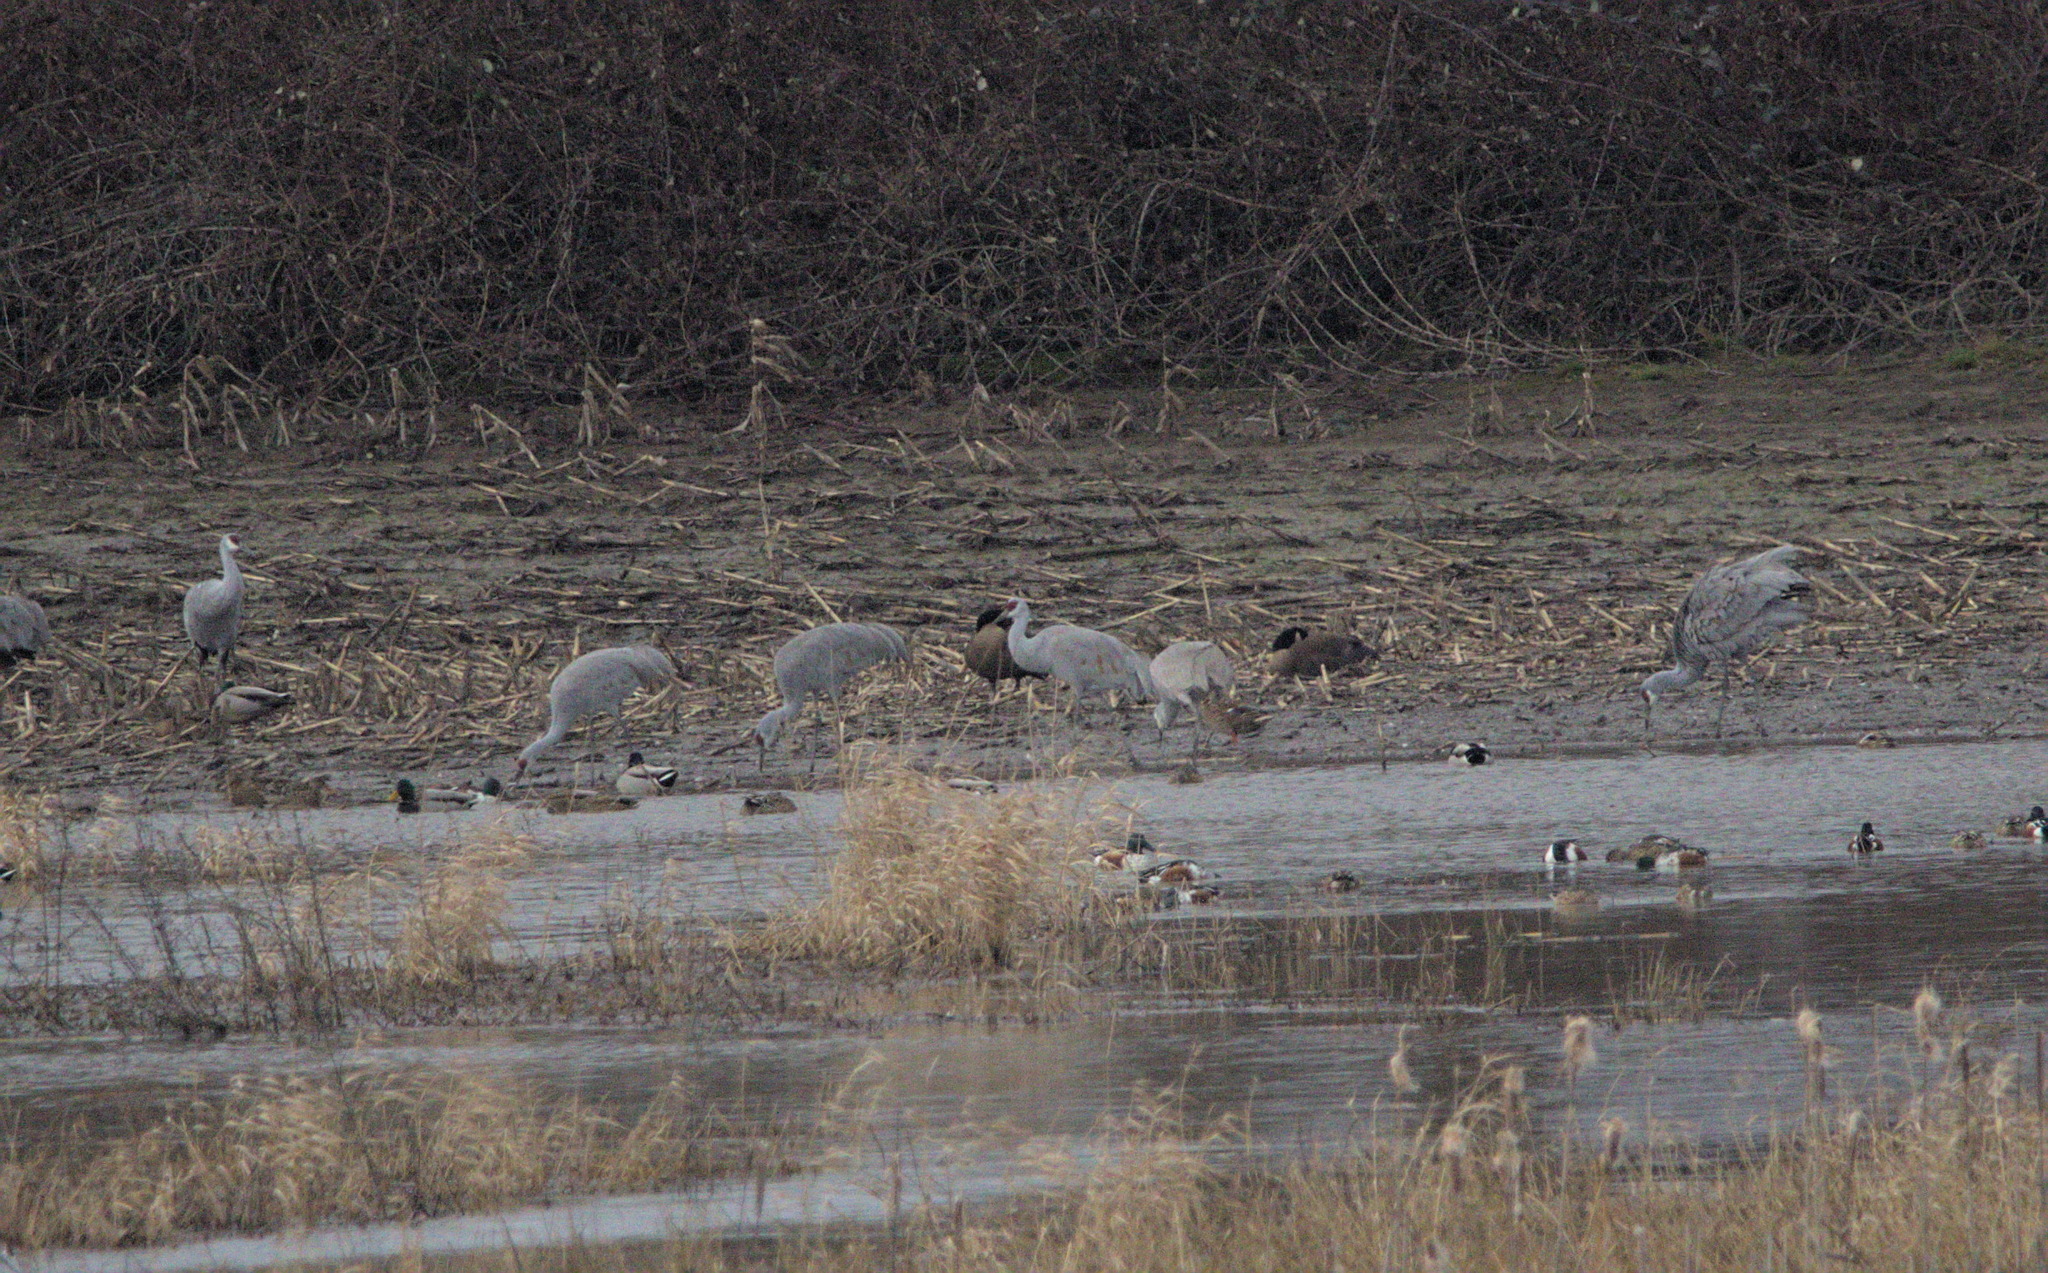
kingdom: Animalia
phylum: Chordata
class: Aves
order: Gruiformes
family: Gruidae
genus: Grus
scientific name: Grus canadensis
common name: Sandhill crane
